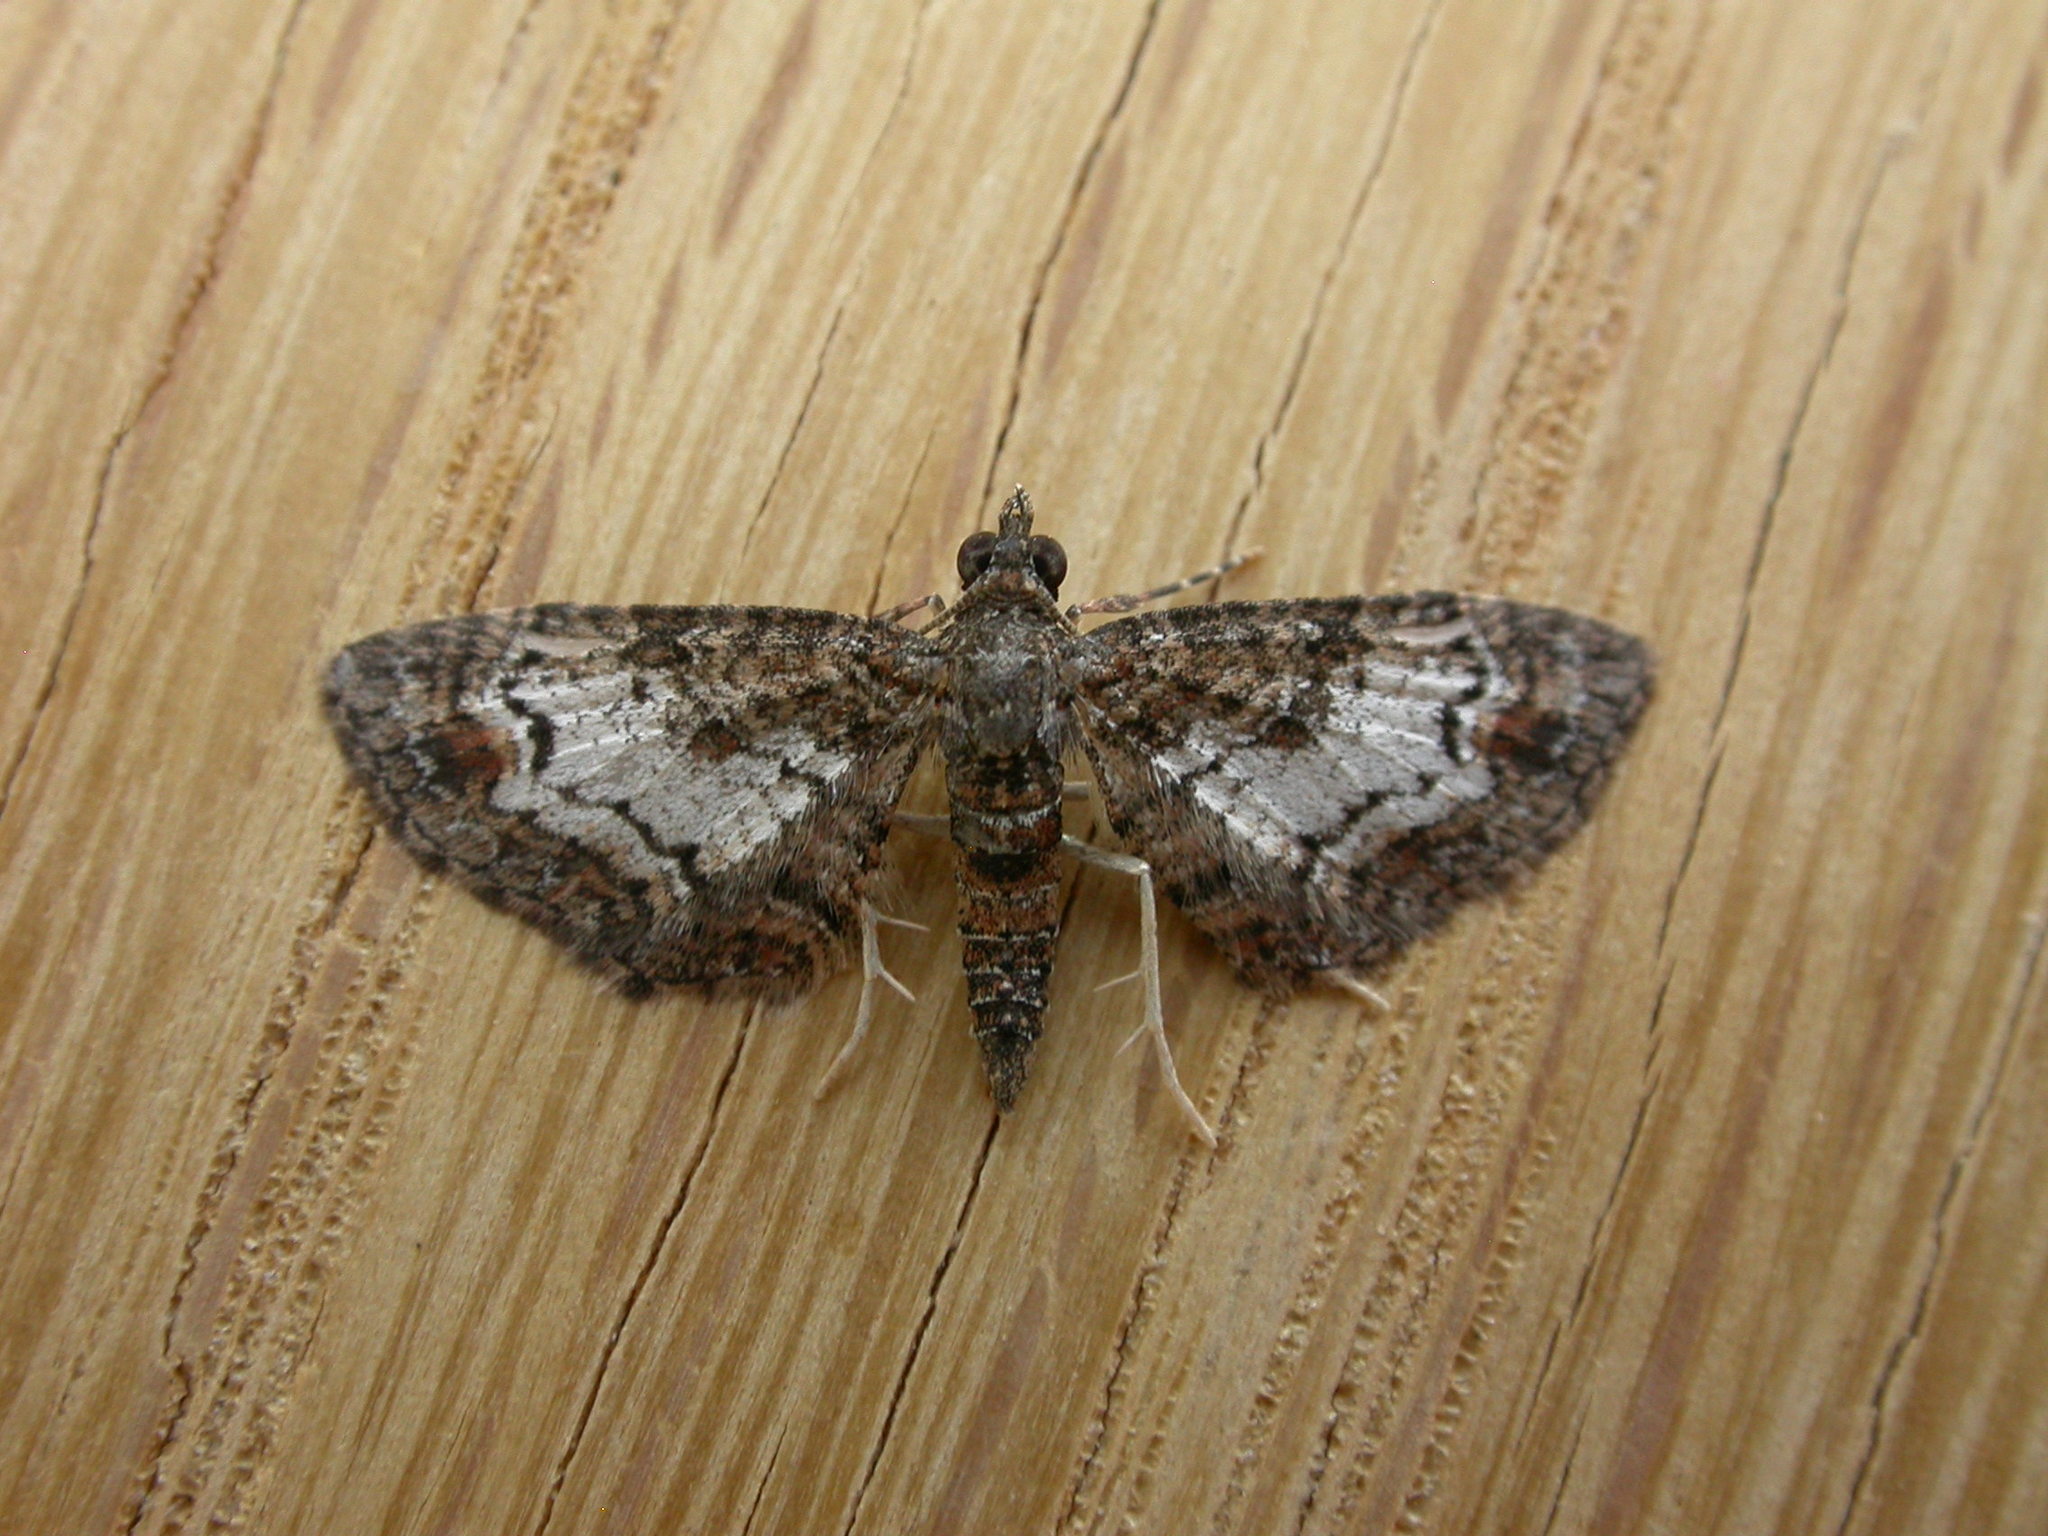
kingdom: Animalia
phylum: Arthropoda
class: Insecta
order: Lepidoptera
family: Geometridae
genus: Pasiphilodes
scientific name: Pasiphilodes testulata
